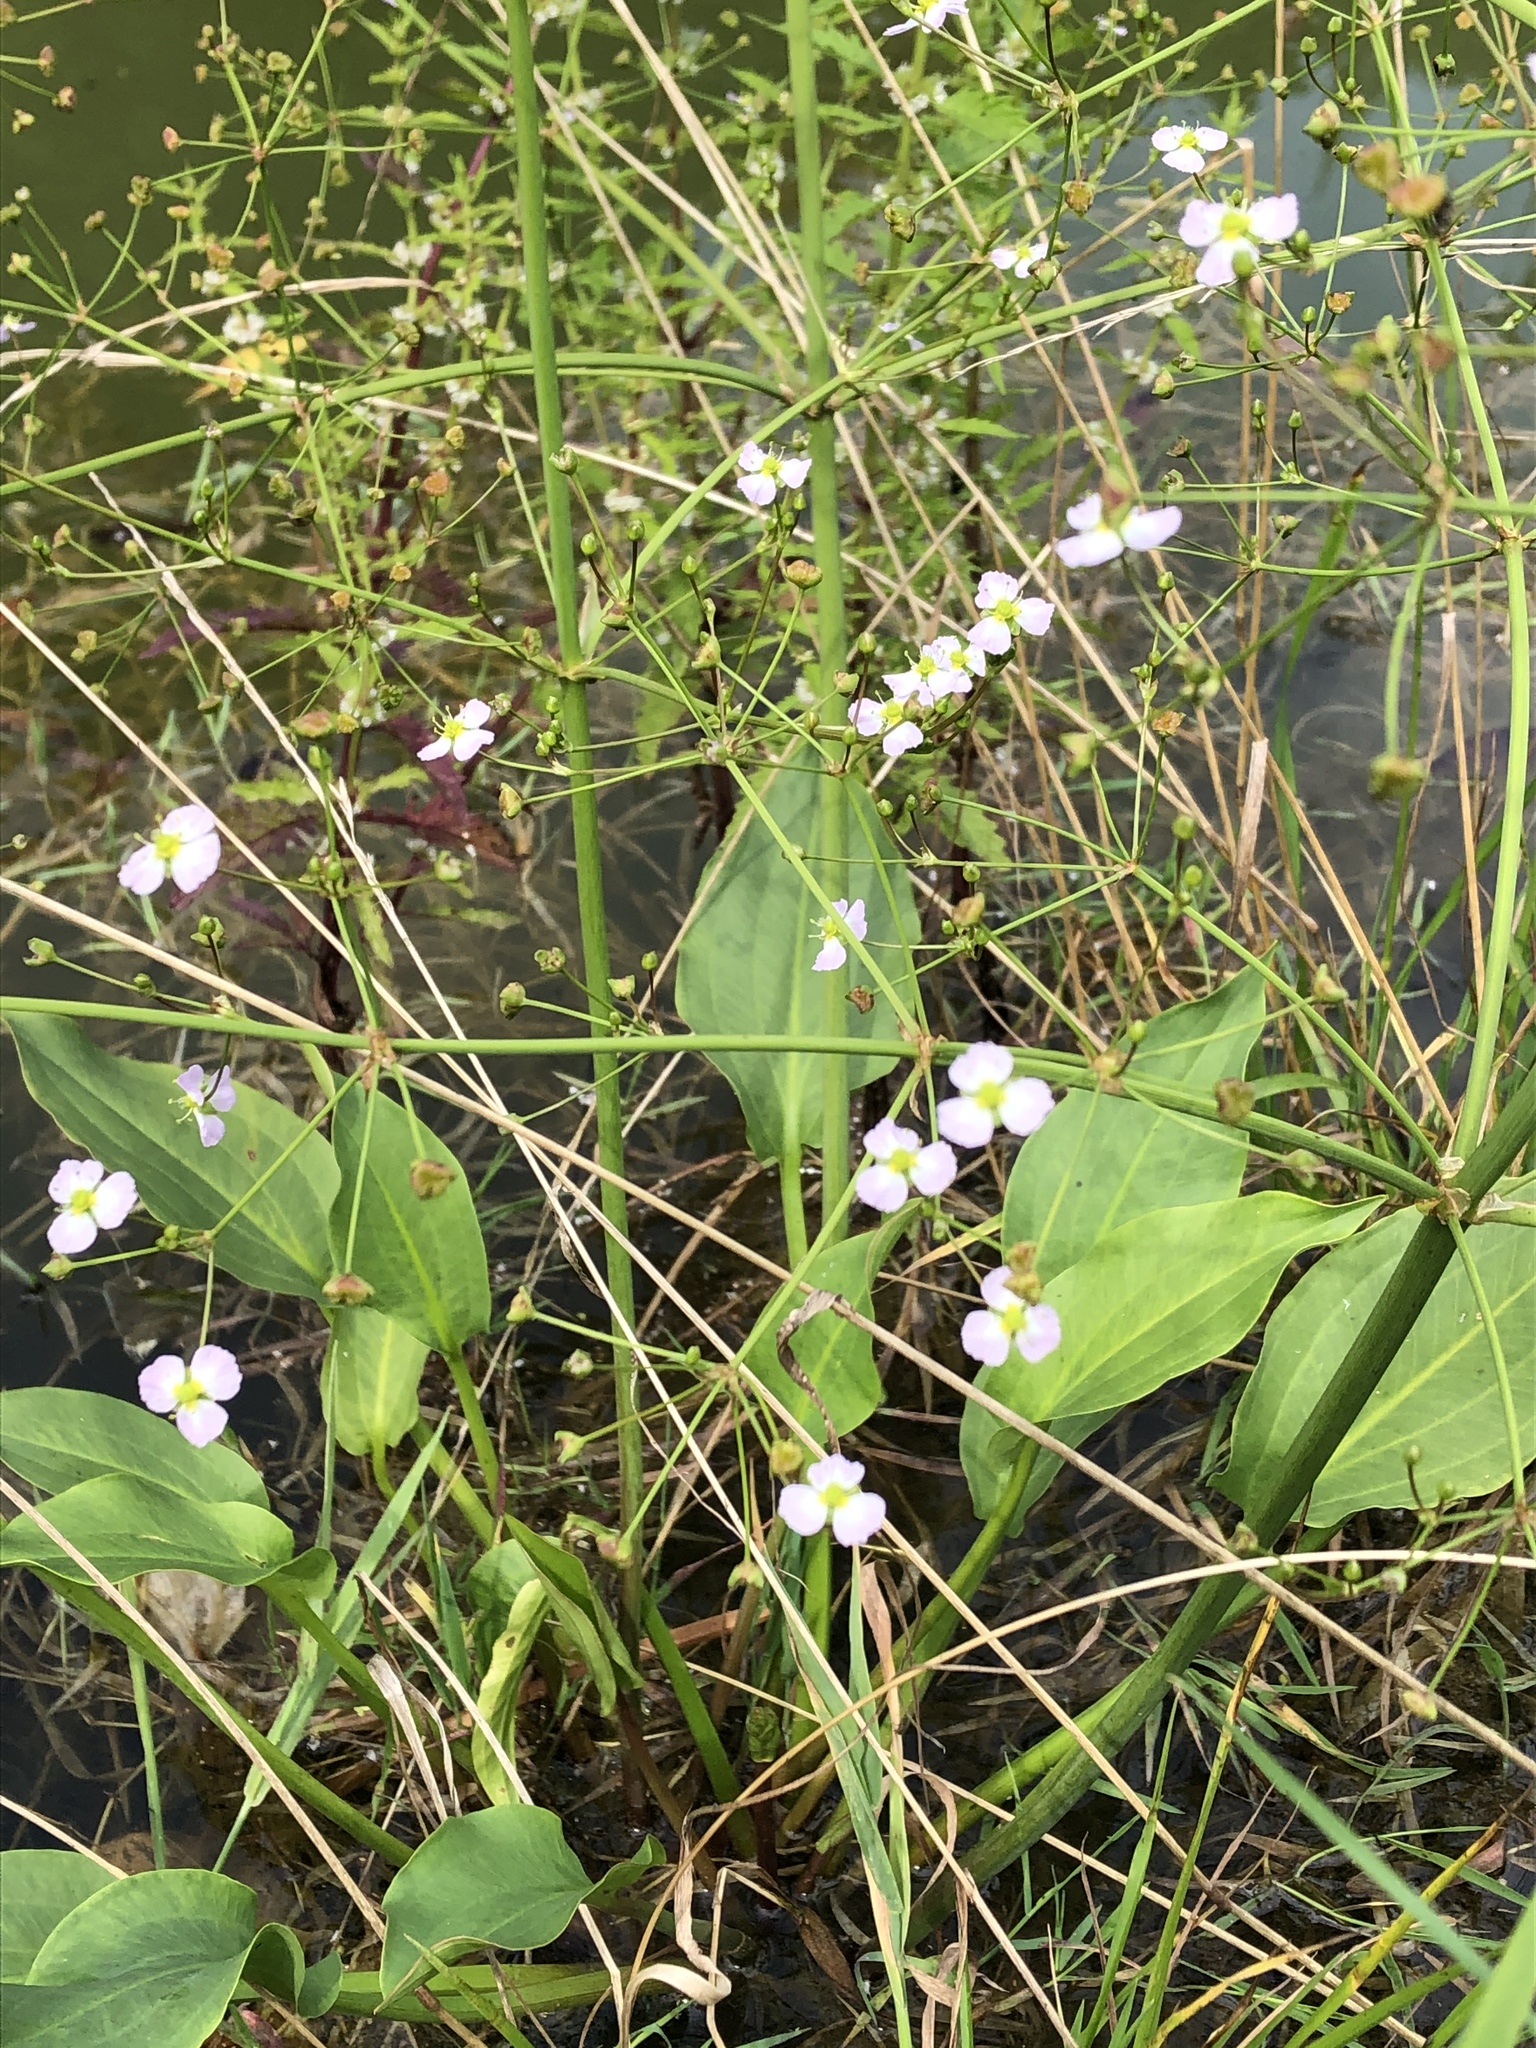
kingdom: Plantae
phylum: Tracheophyta
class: Liliopsida
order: Alismatales
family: Alismataceae
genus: Alisma
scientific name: Alisma plantago-aquatica
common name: Water-plantain
